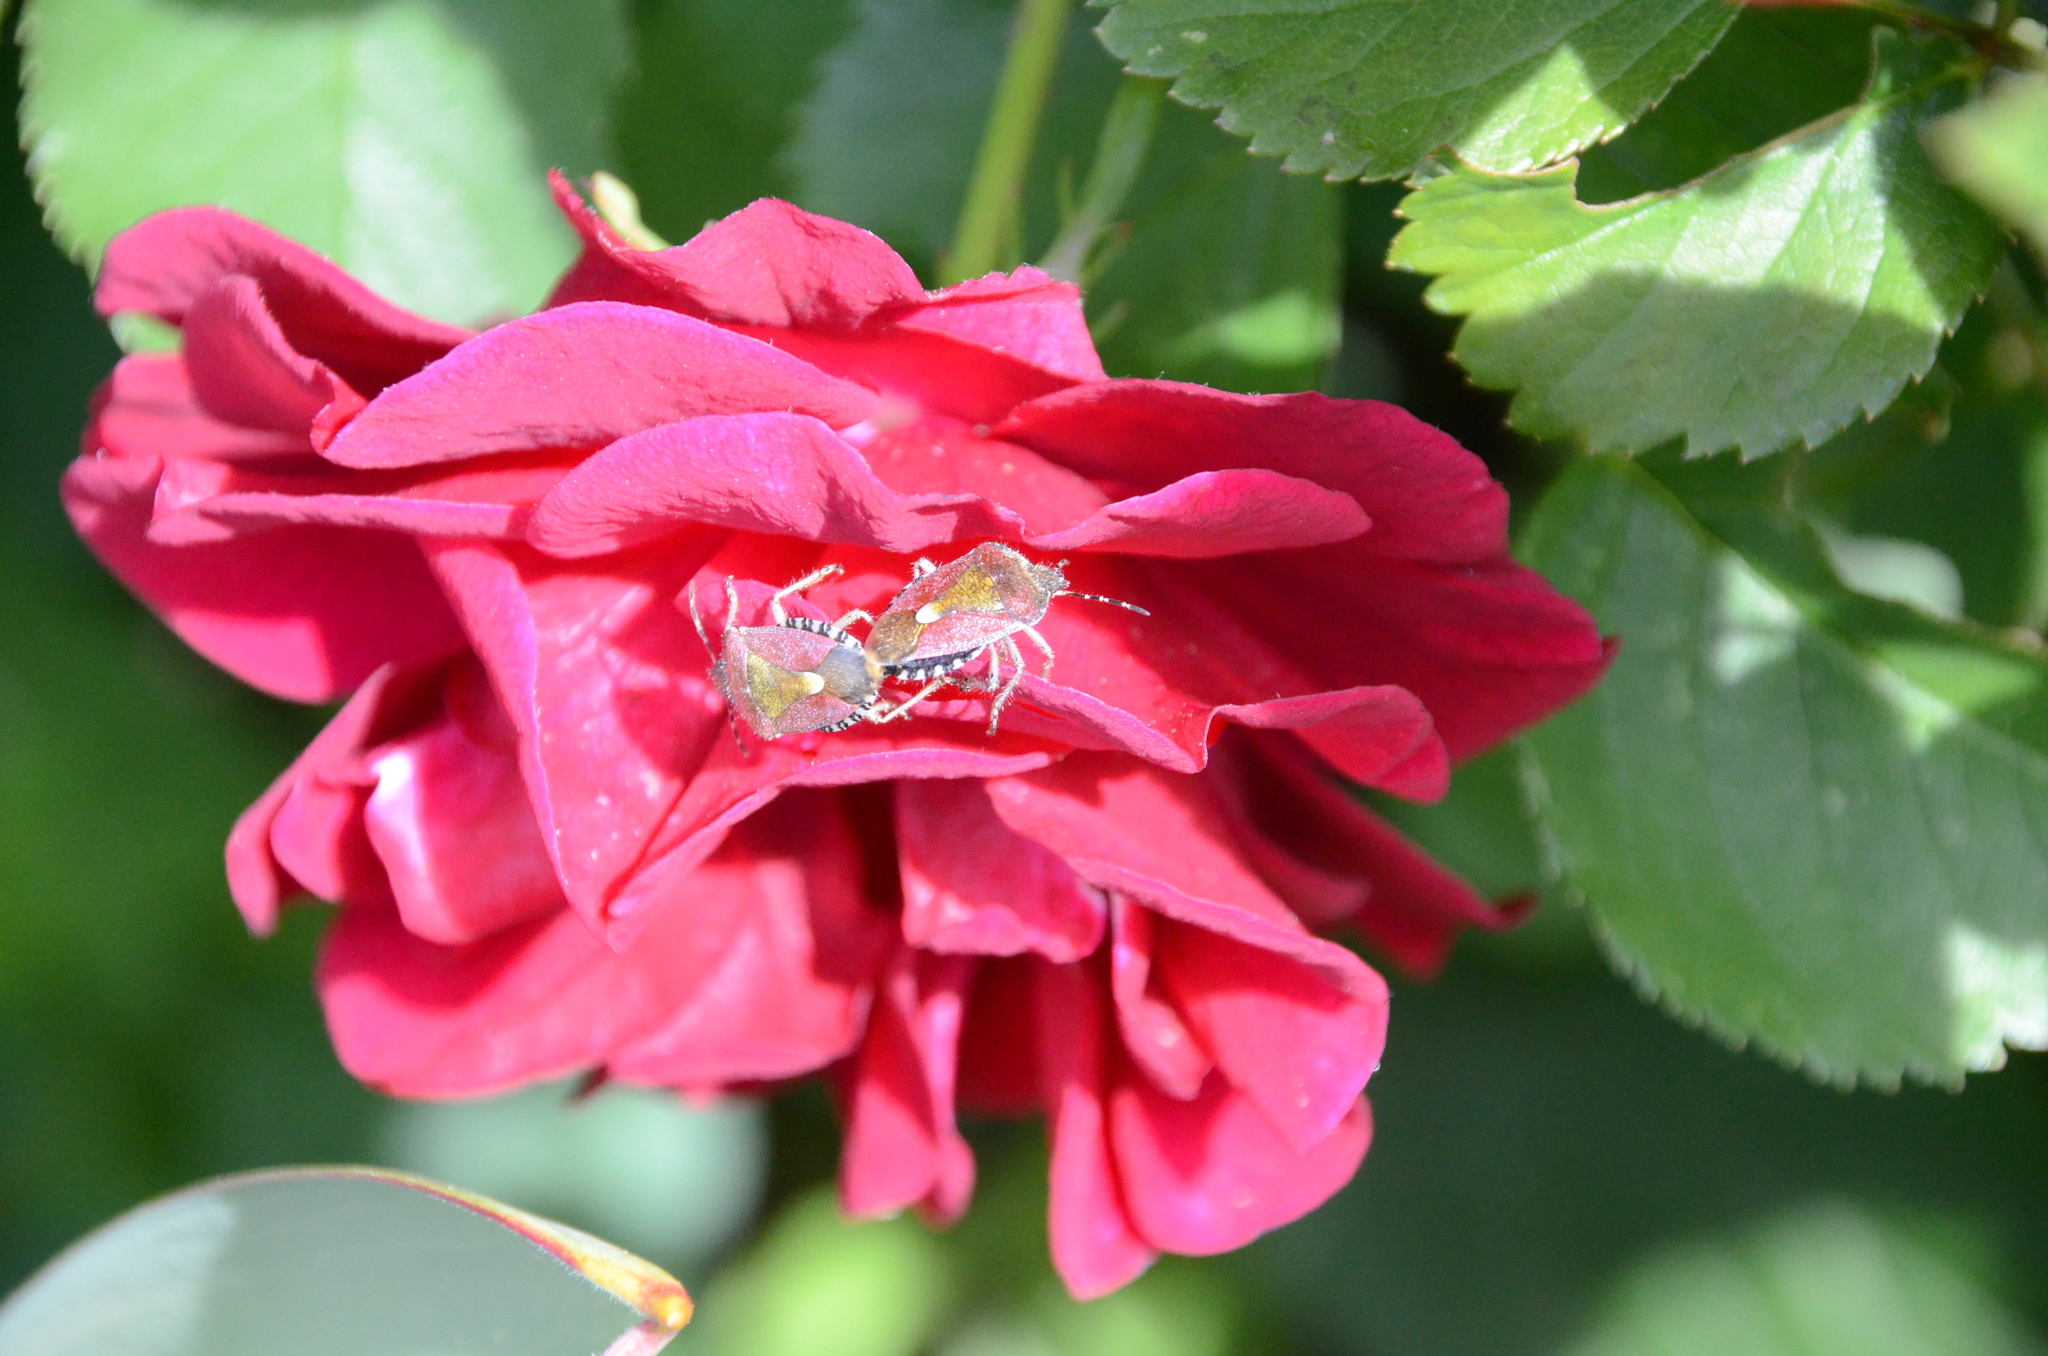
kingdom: Animalia
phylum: Arthropoda
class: Insecta
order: Hemiptera
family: Pentatomidae
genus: Dolycoris
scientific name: Dolycoris baccarum
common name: Sloe bug
